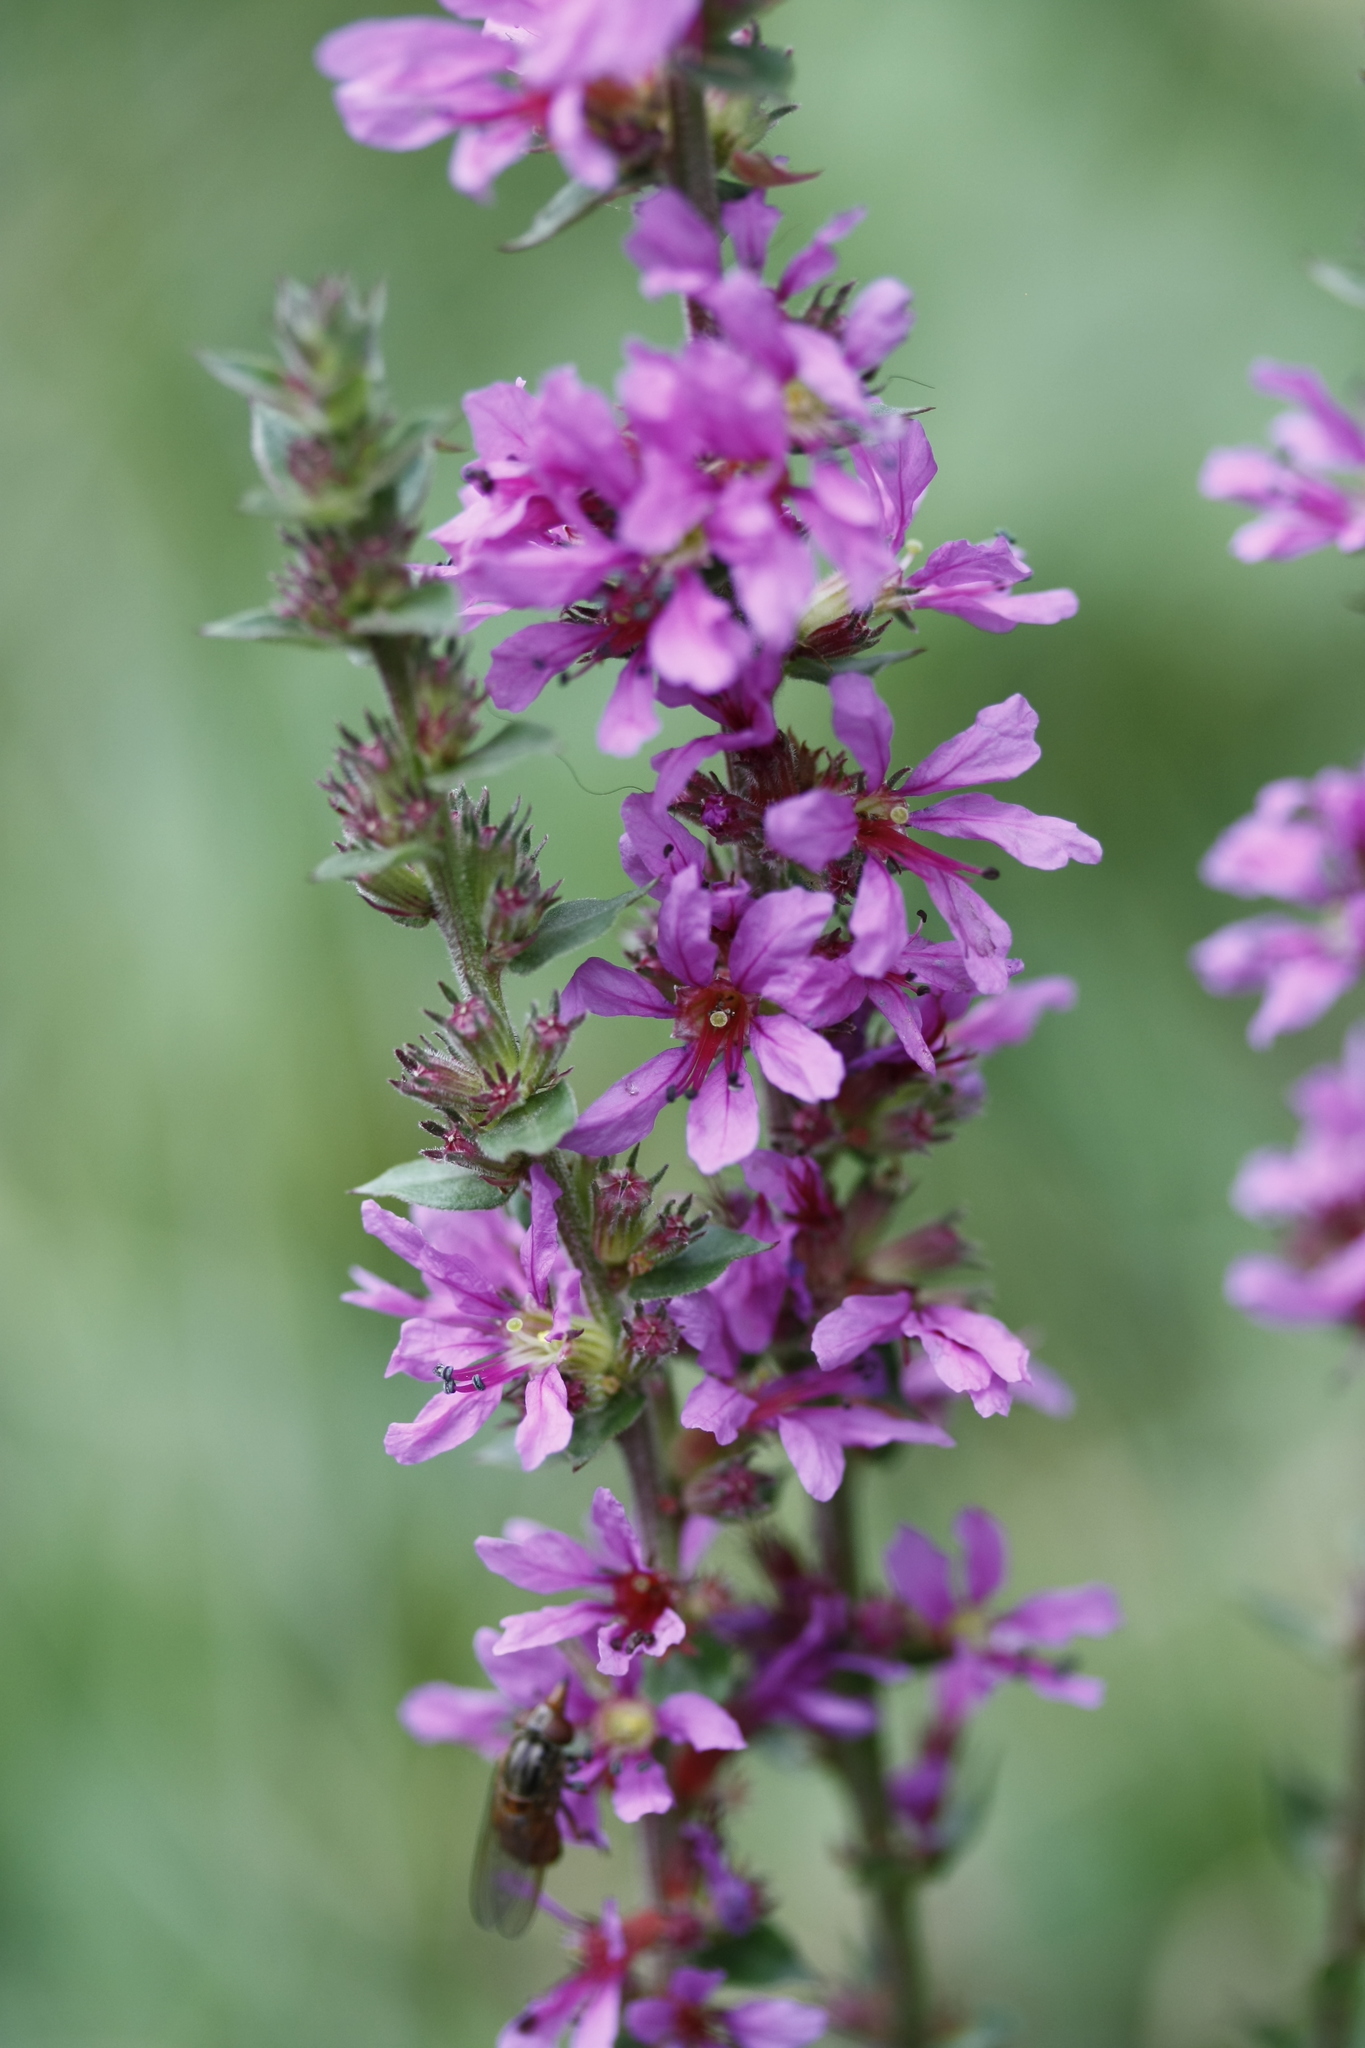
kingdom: Plantae
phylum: Tracheophyta
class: Magnoliopsida
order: Myrtales
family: Lythraceae
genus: Lythrum
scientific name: Lythrum salicaria
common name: Purple loosestrife
